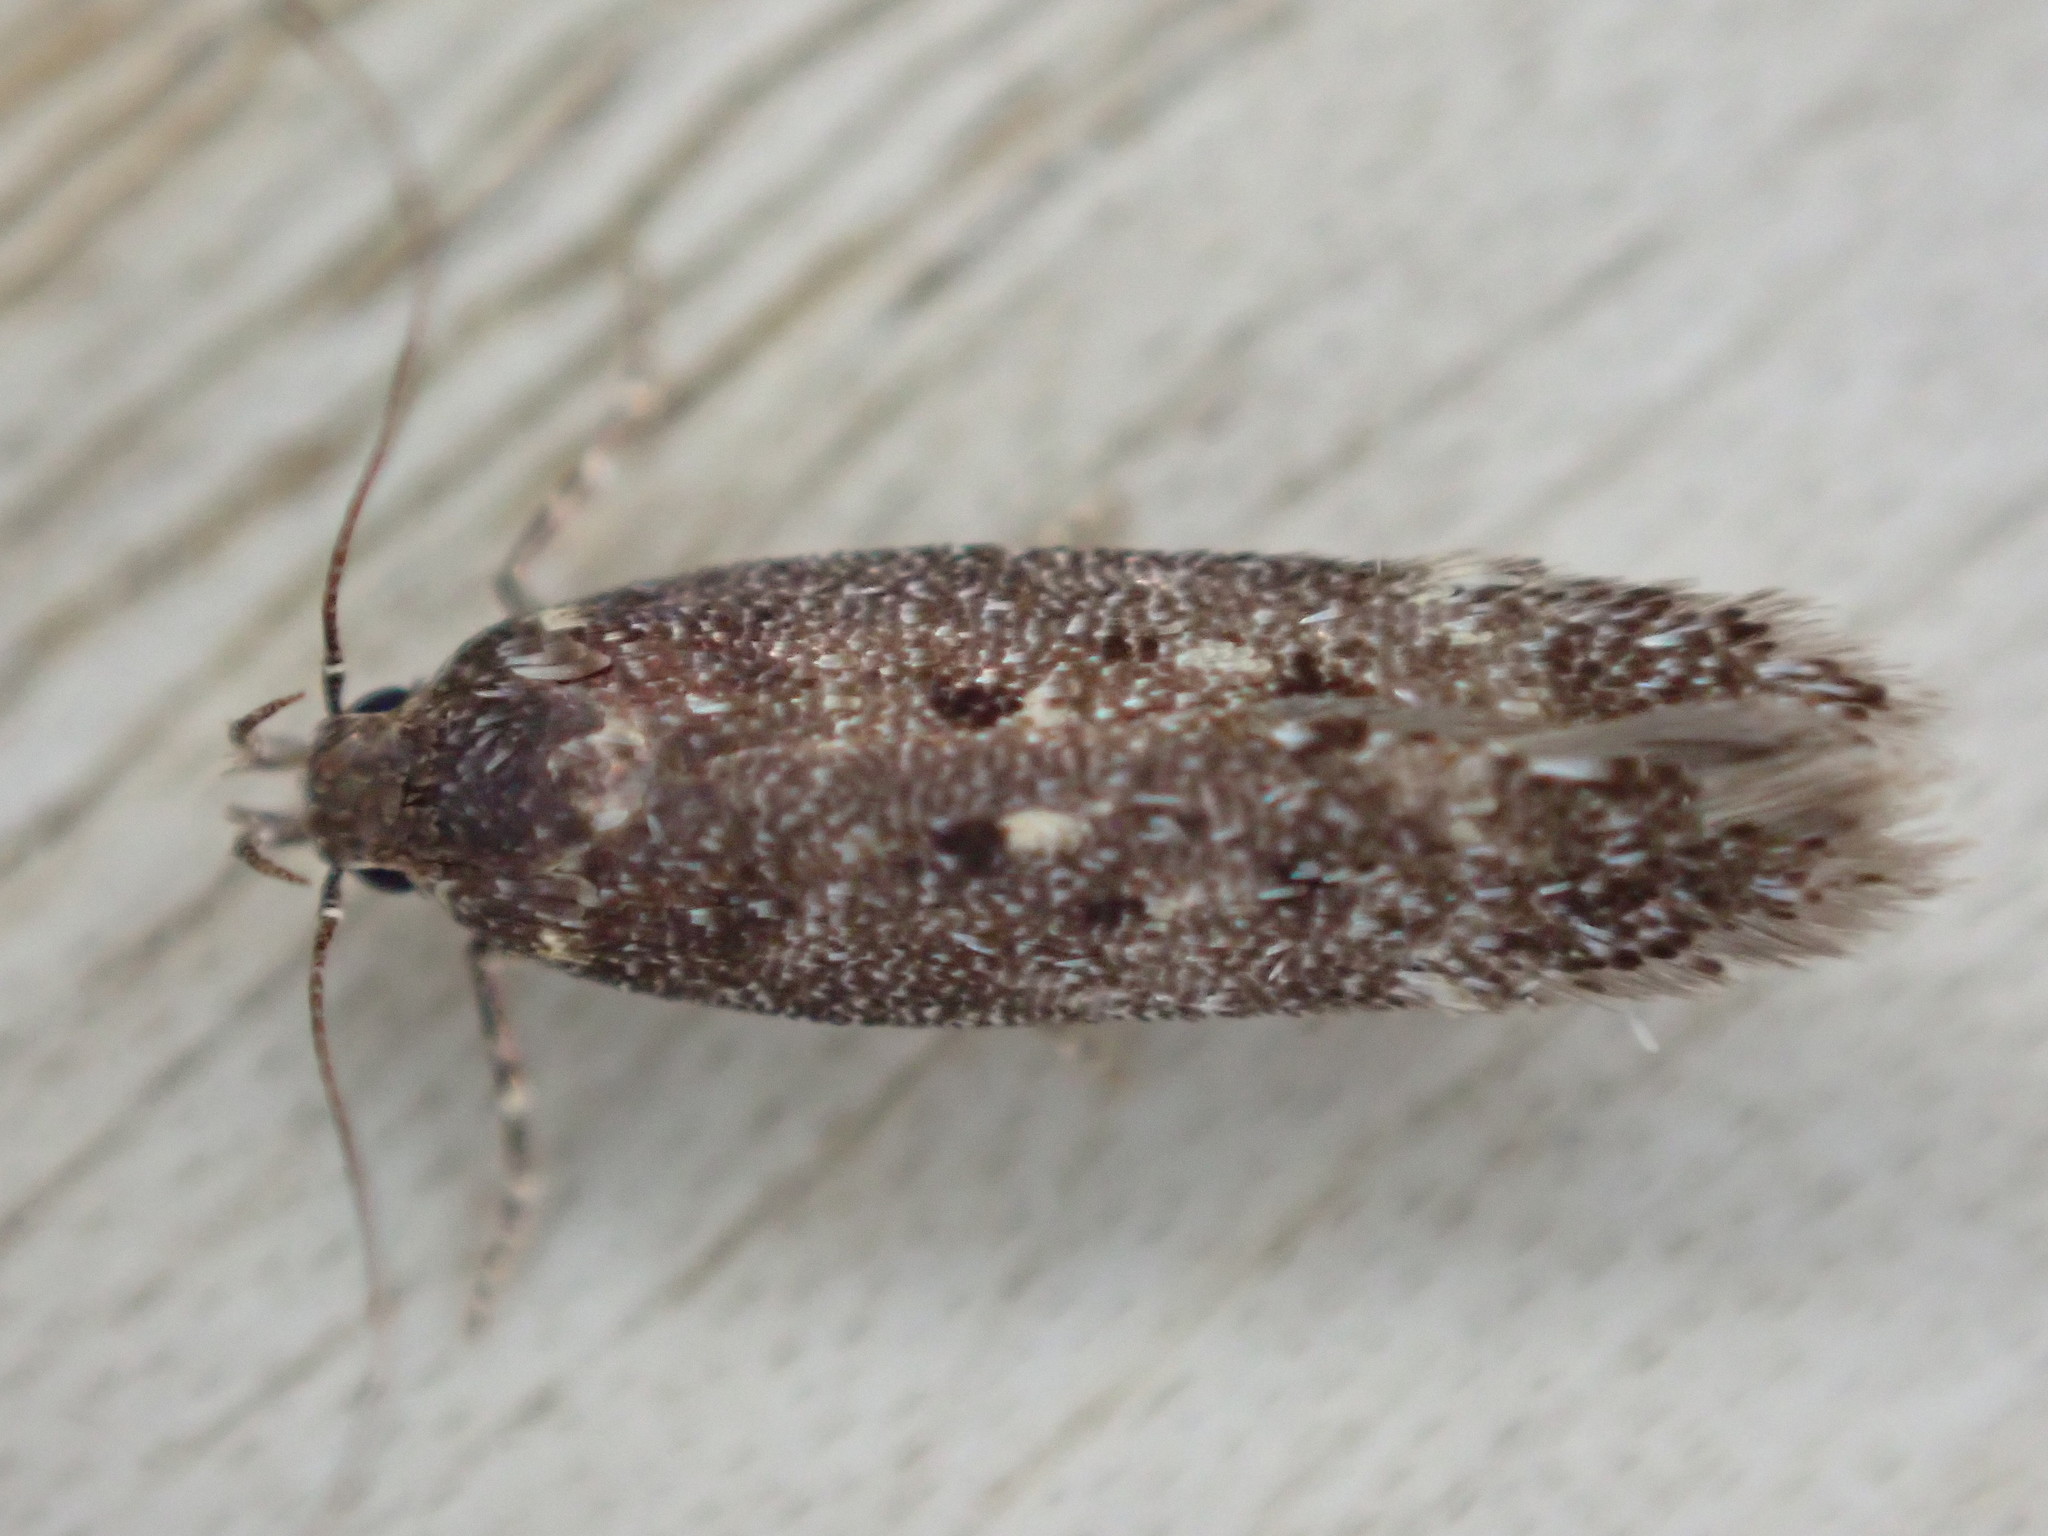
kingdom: Animalia
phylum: Arthropoda
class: Insecta
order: Lepidoptera
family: Gelechiidae
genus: Bryotropha
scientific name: Bryotropha affinis
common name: Dark groundling
